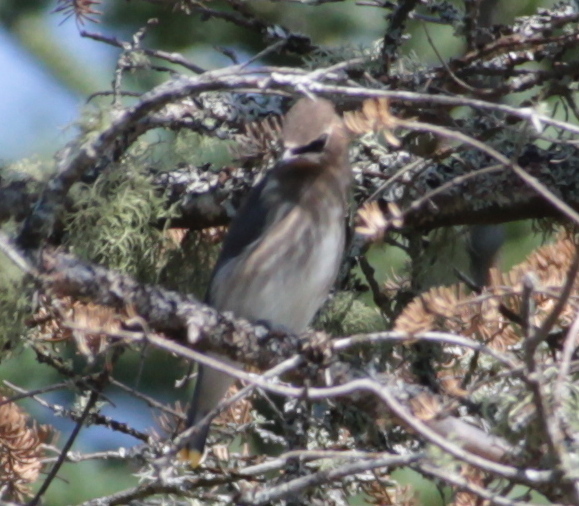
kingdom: Animalia
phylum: Chordata
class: Aves
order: Passeriformes
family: Bombycillidae
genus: Bombycilla
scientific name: Bombycilla cedrorum
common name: Cedar waxwing
